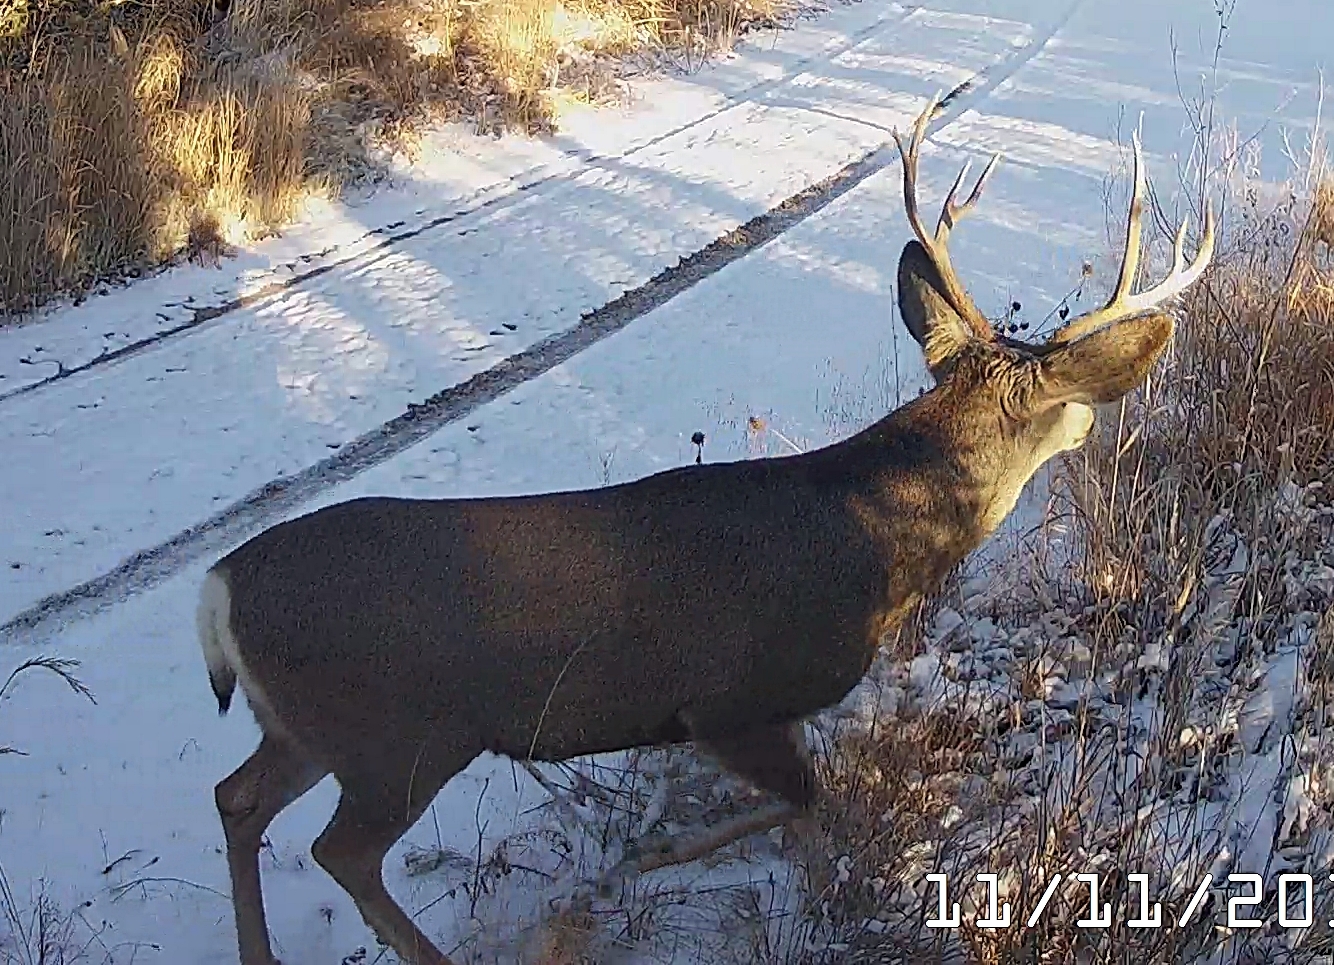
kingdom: Animalia
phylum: Chordata
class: Mammalia
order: Artiodactyla
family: Cervidae
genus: Odocoileus
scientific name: Odocoileus hemionus
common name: Mule deer
